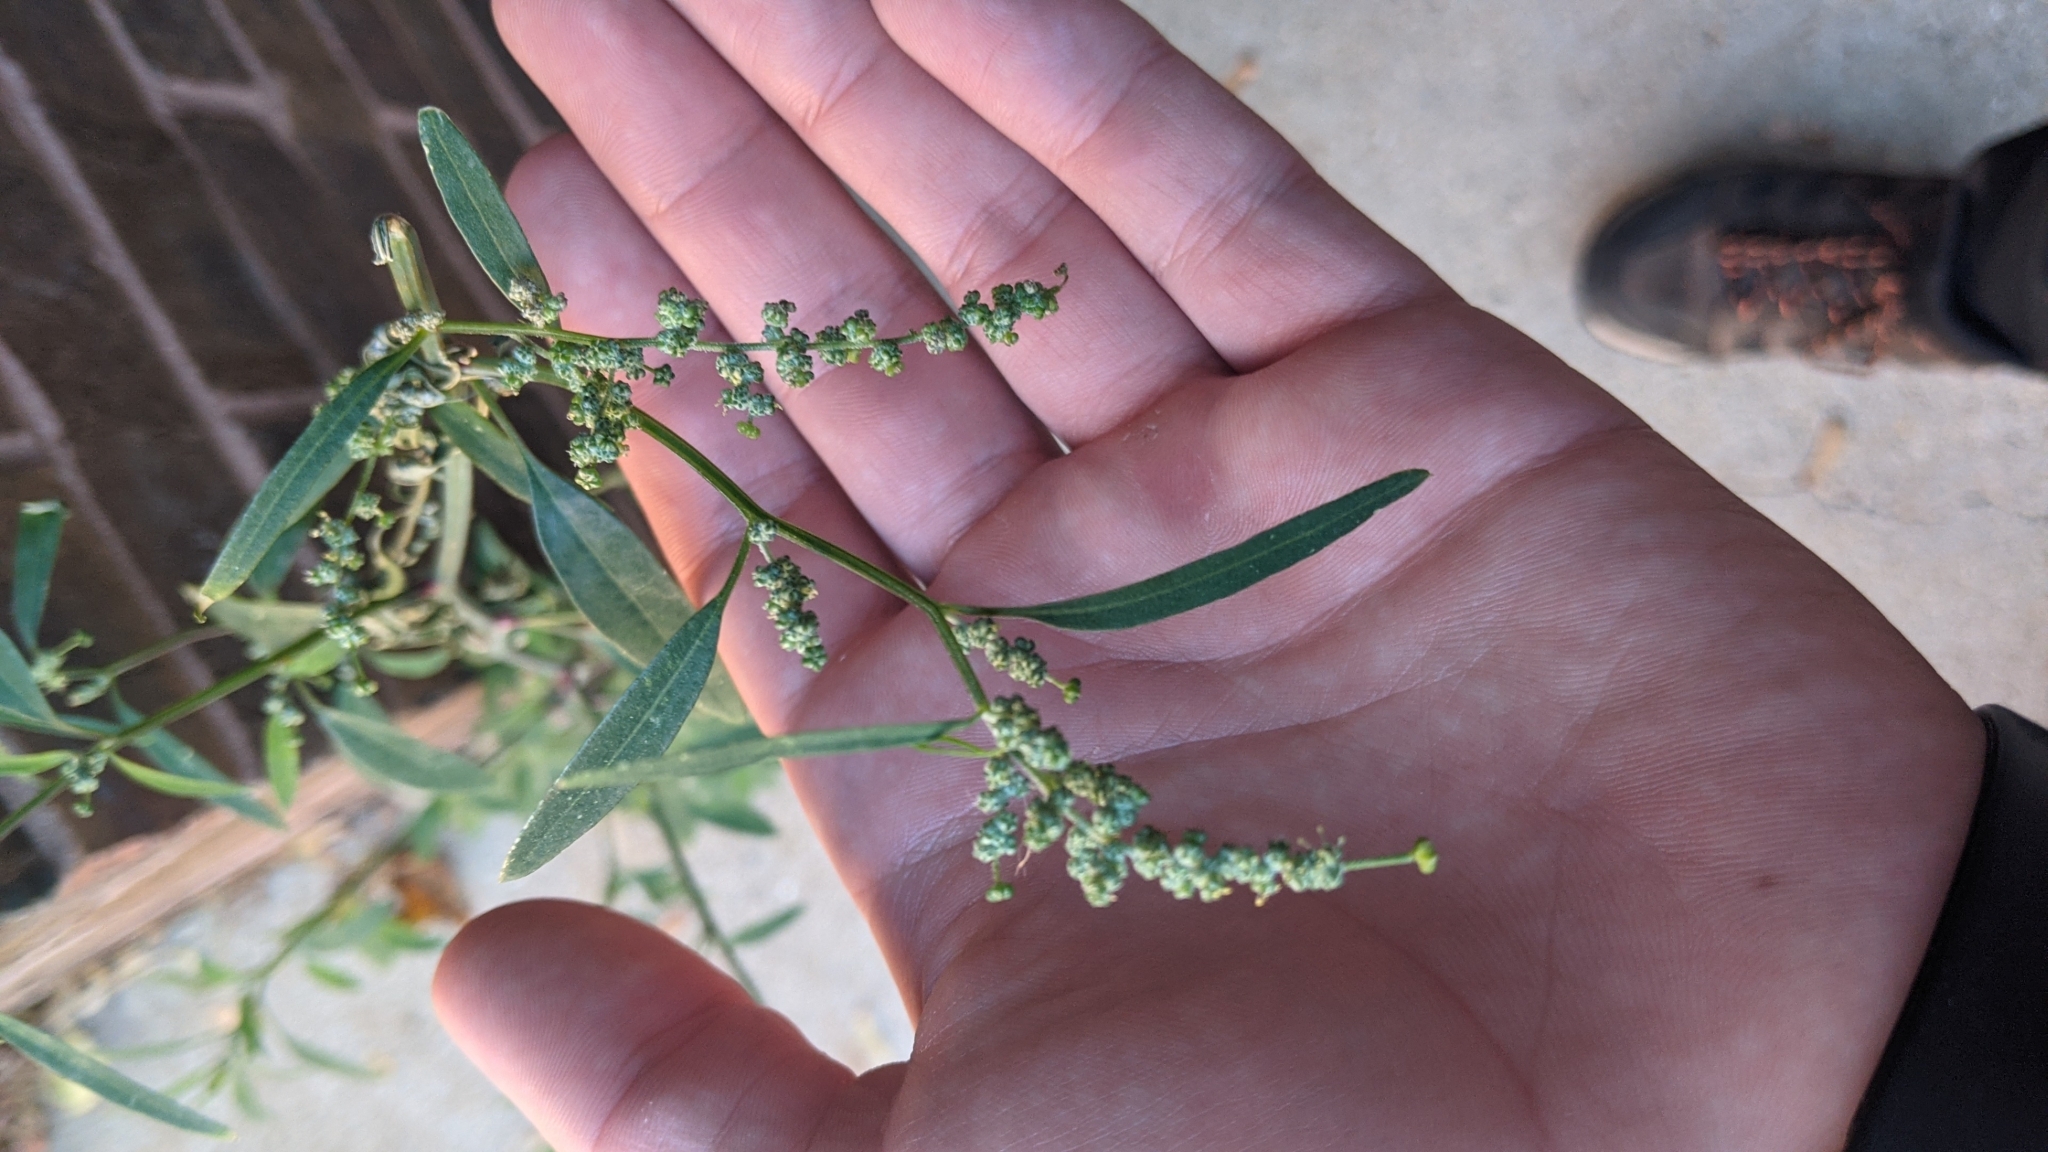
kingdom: Plantae
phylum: Tracheophyta
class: Magnoliopsida
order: Caryophyllales
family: Amaranthaceae
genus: Chenopodium
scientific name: Chenopodium album
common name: Fat-hen
